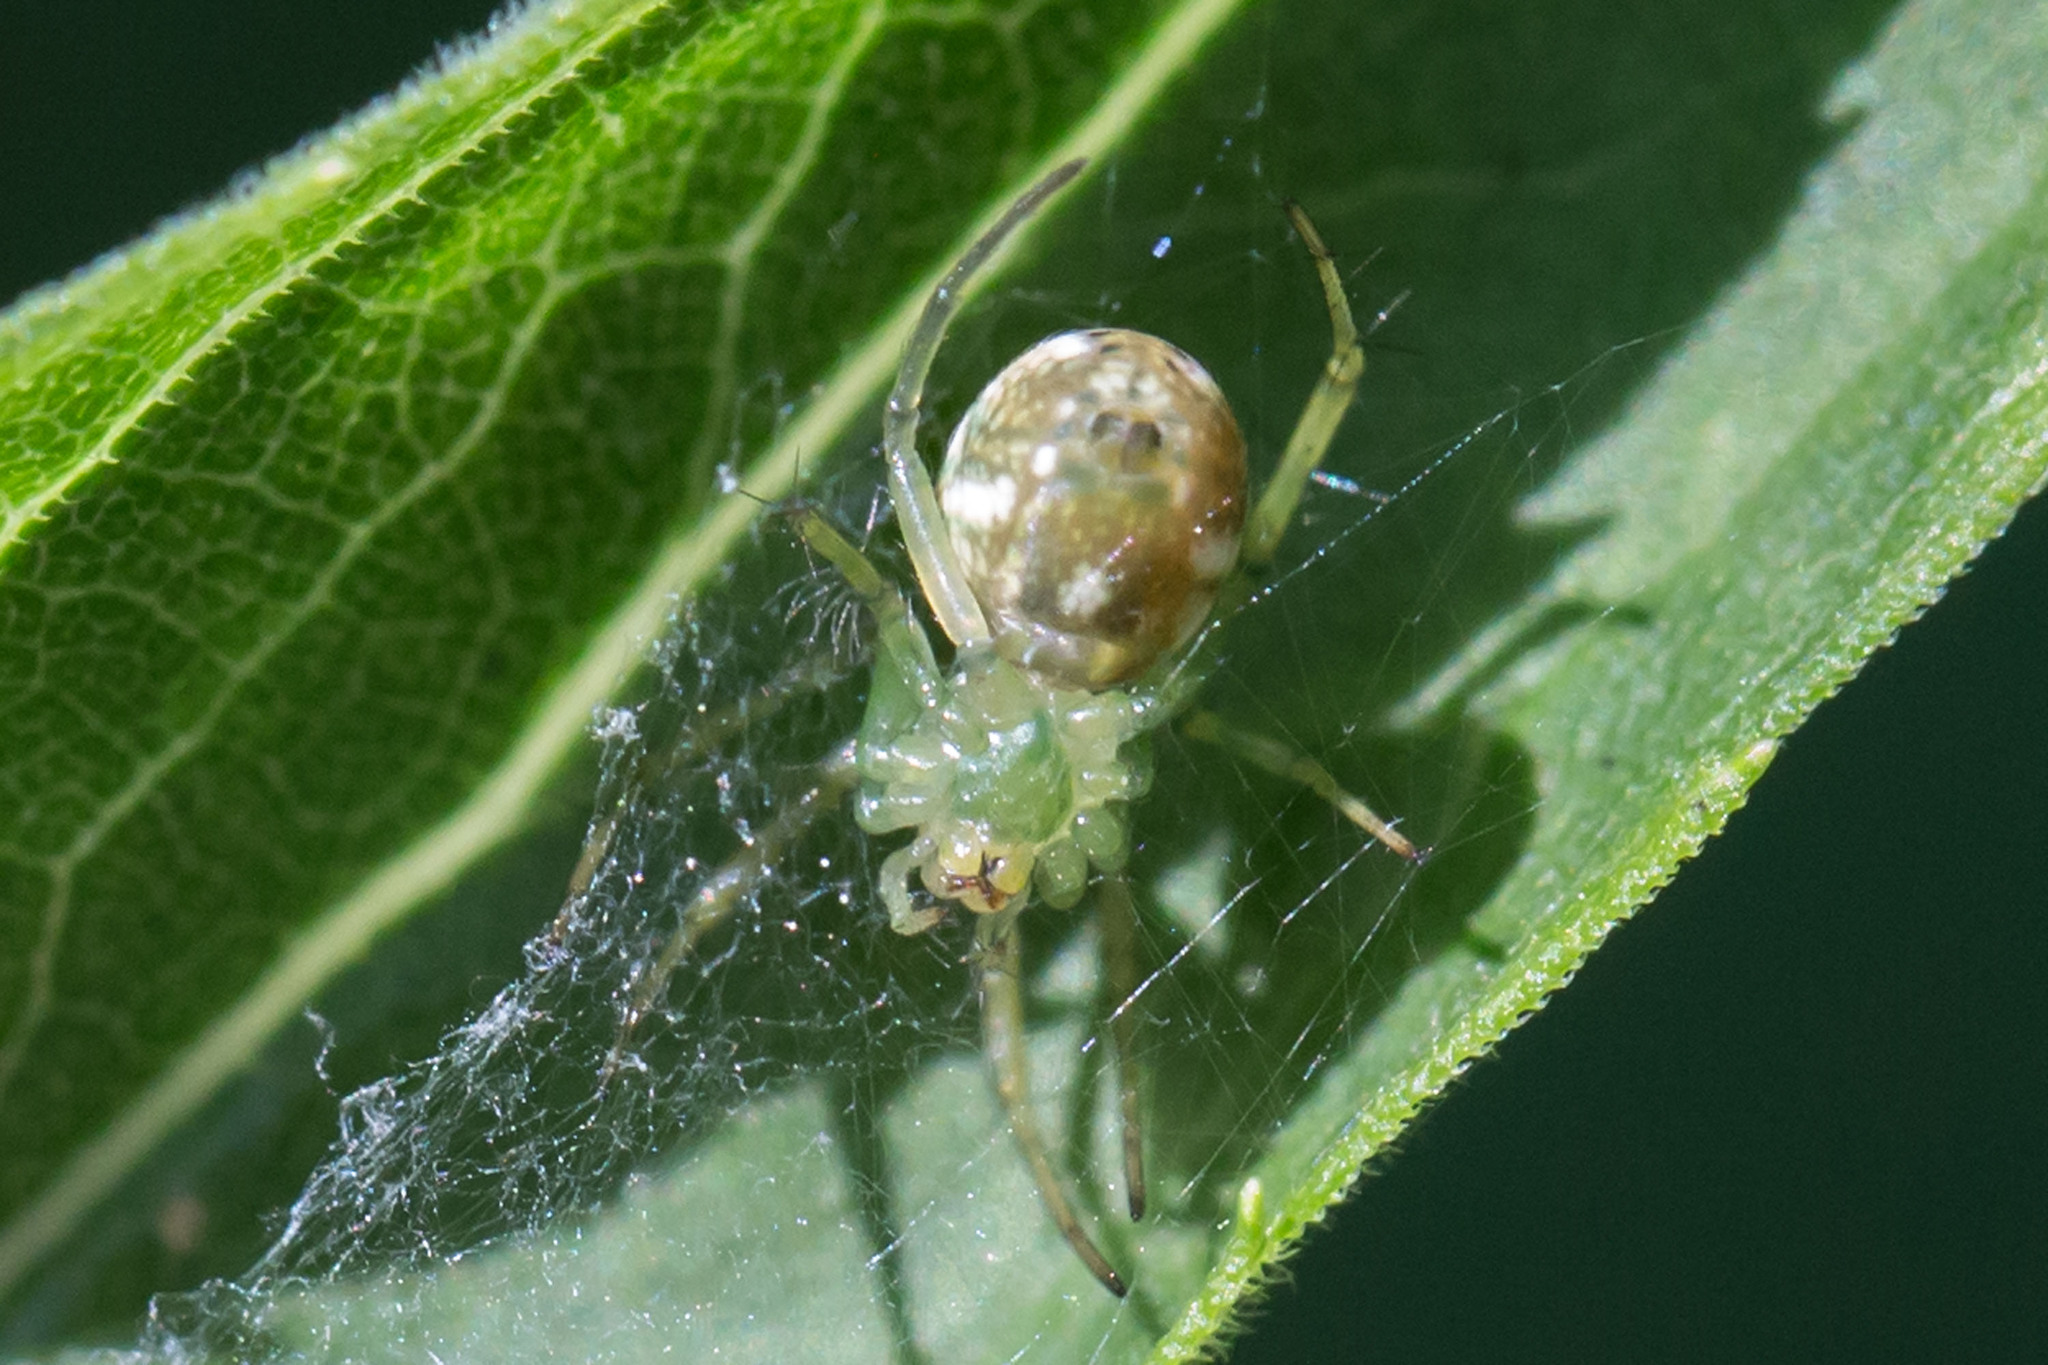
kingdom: Animalia
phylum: Arthropoda
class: Arachnida
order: Araneae
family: Araneidae
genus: Mangora
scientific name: Mangora spiculata
